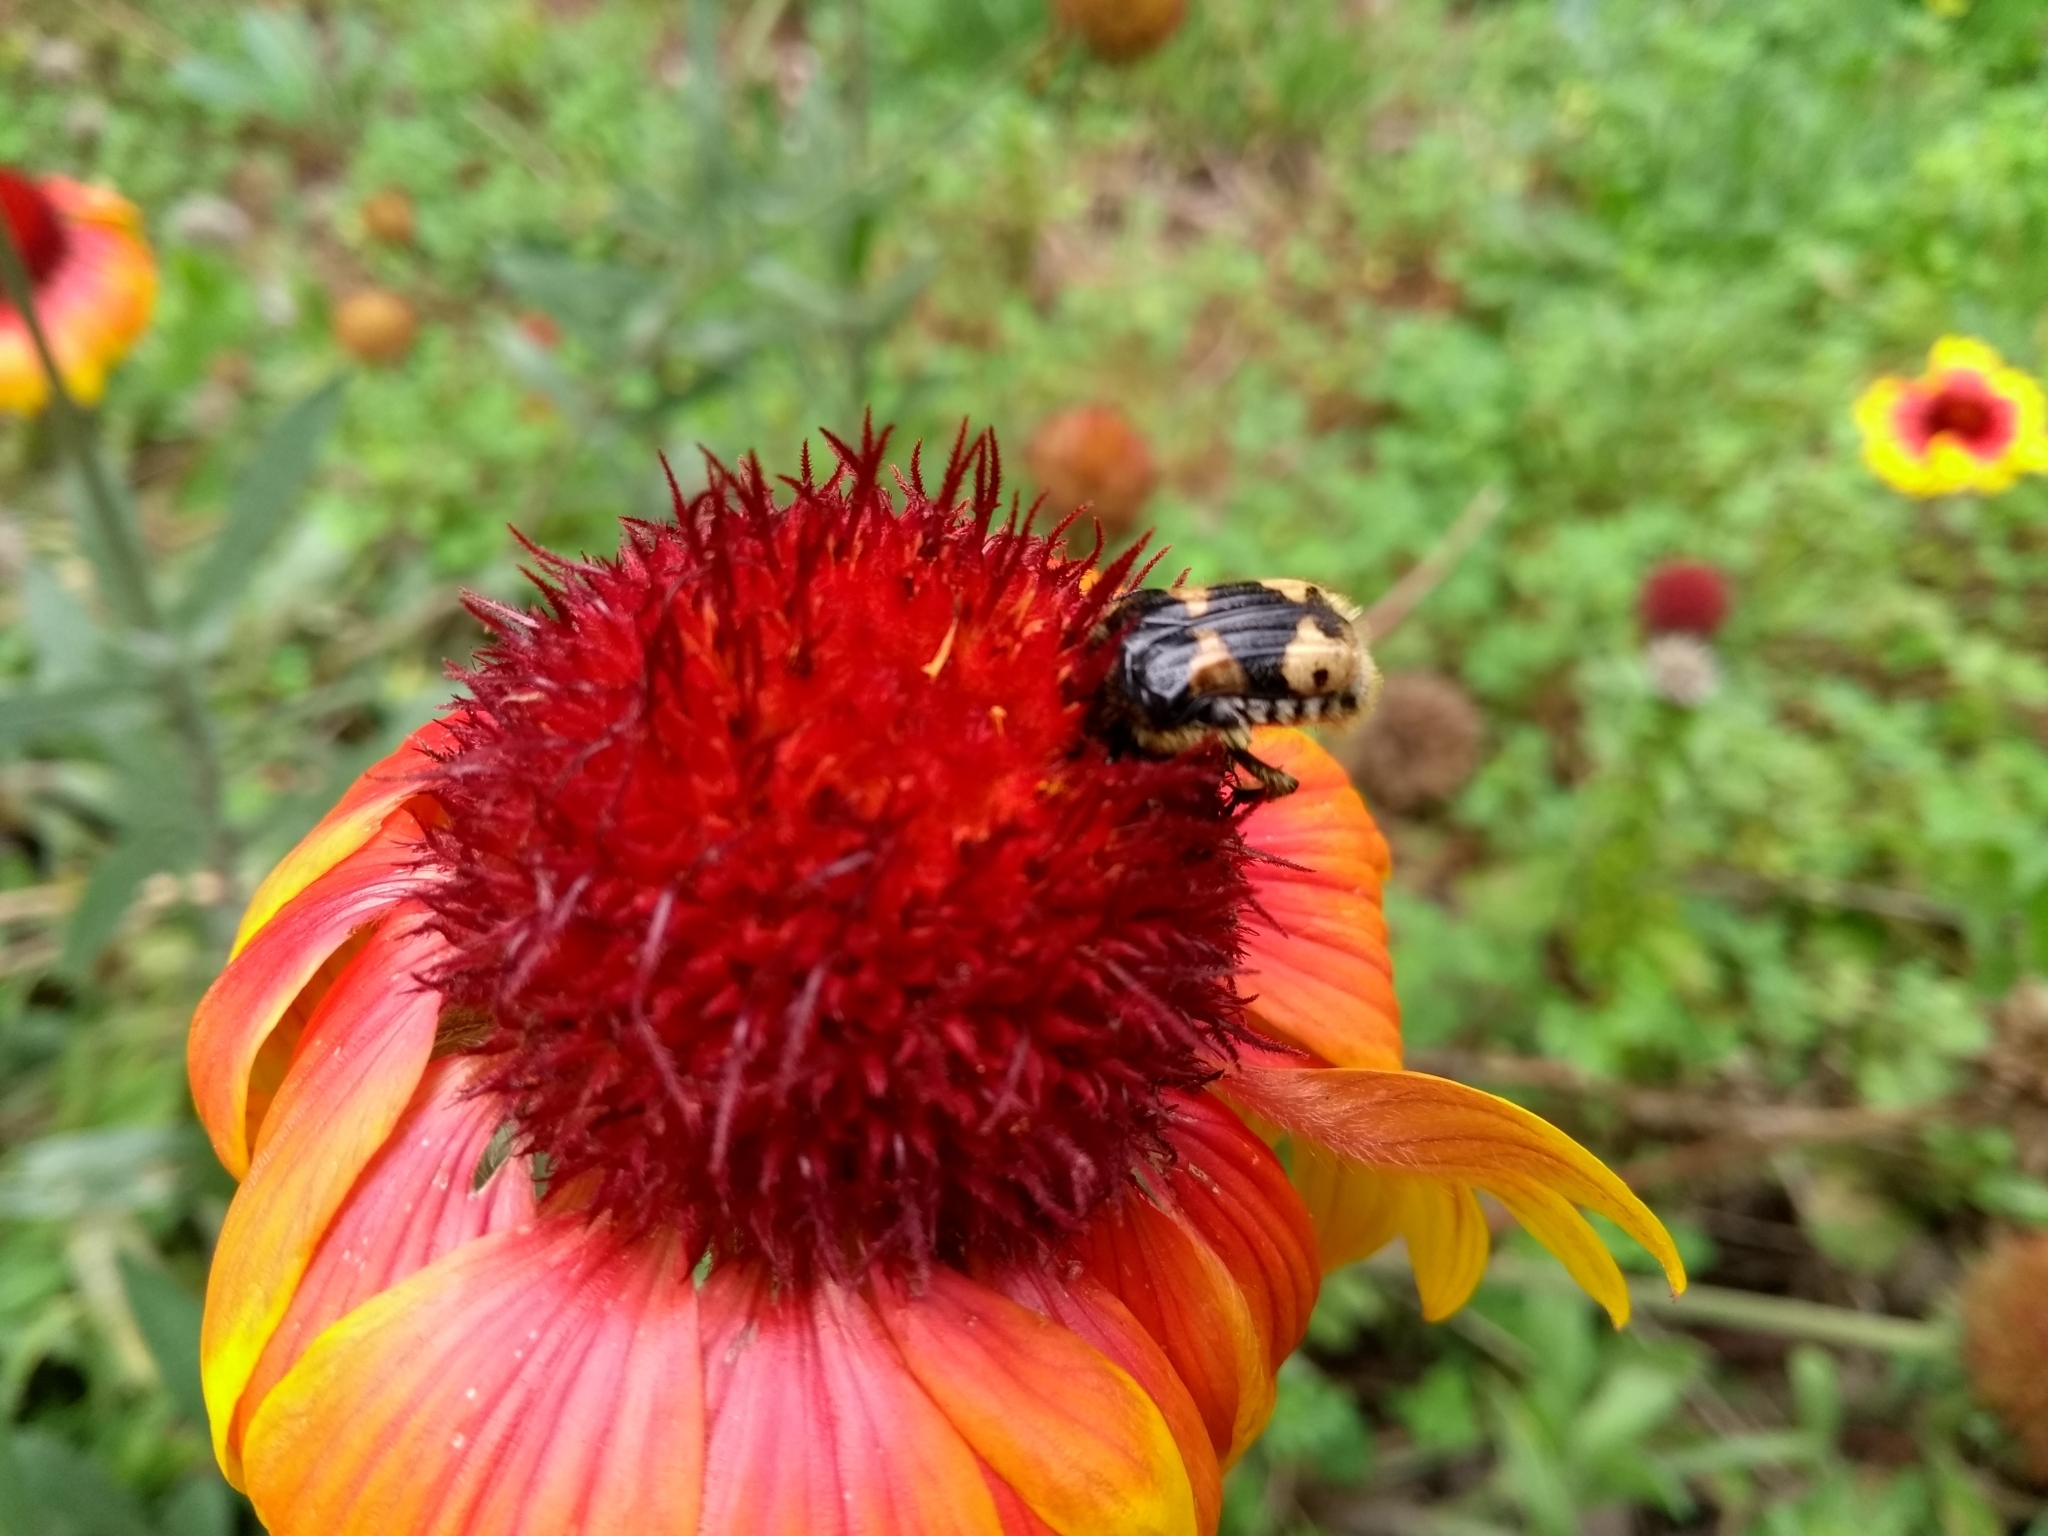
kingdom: Animalia
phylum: Arthropoda
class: Insecta
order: Coleoptera
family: Scarabaeidae
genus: Euphoria
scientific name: Euphoria basalis
